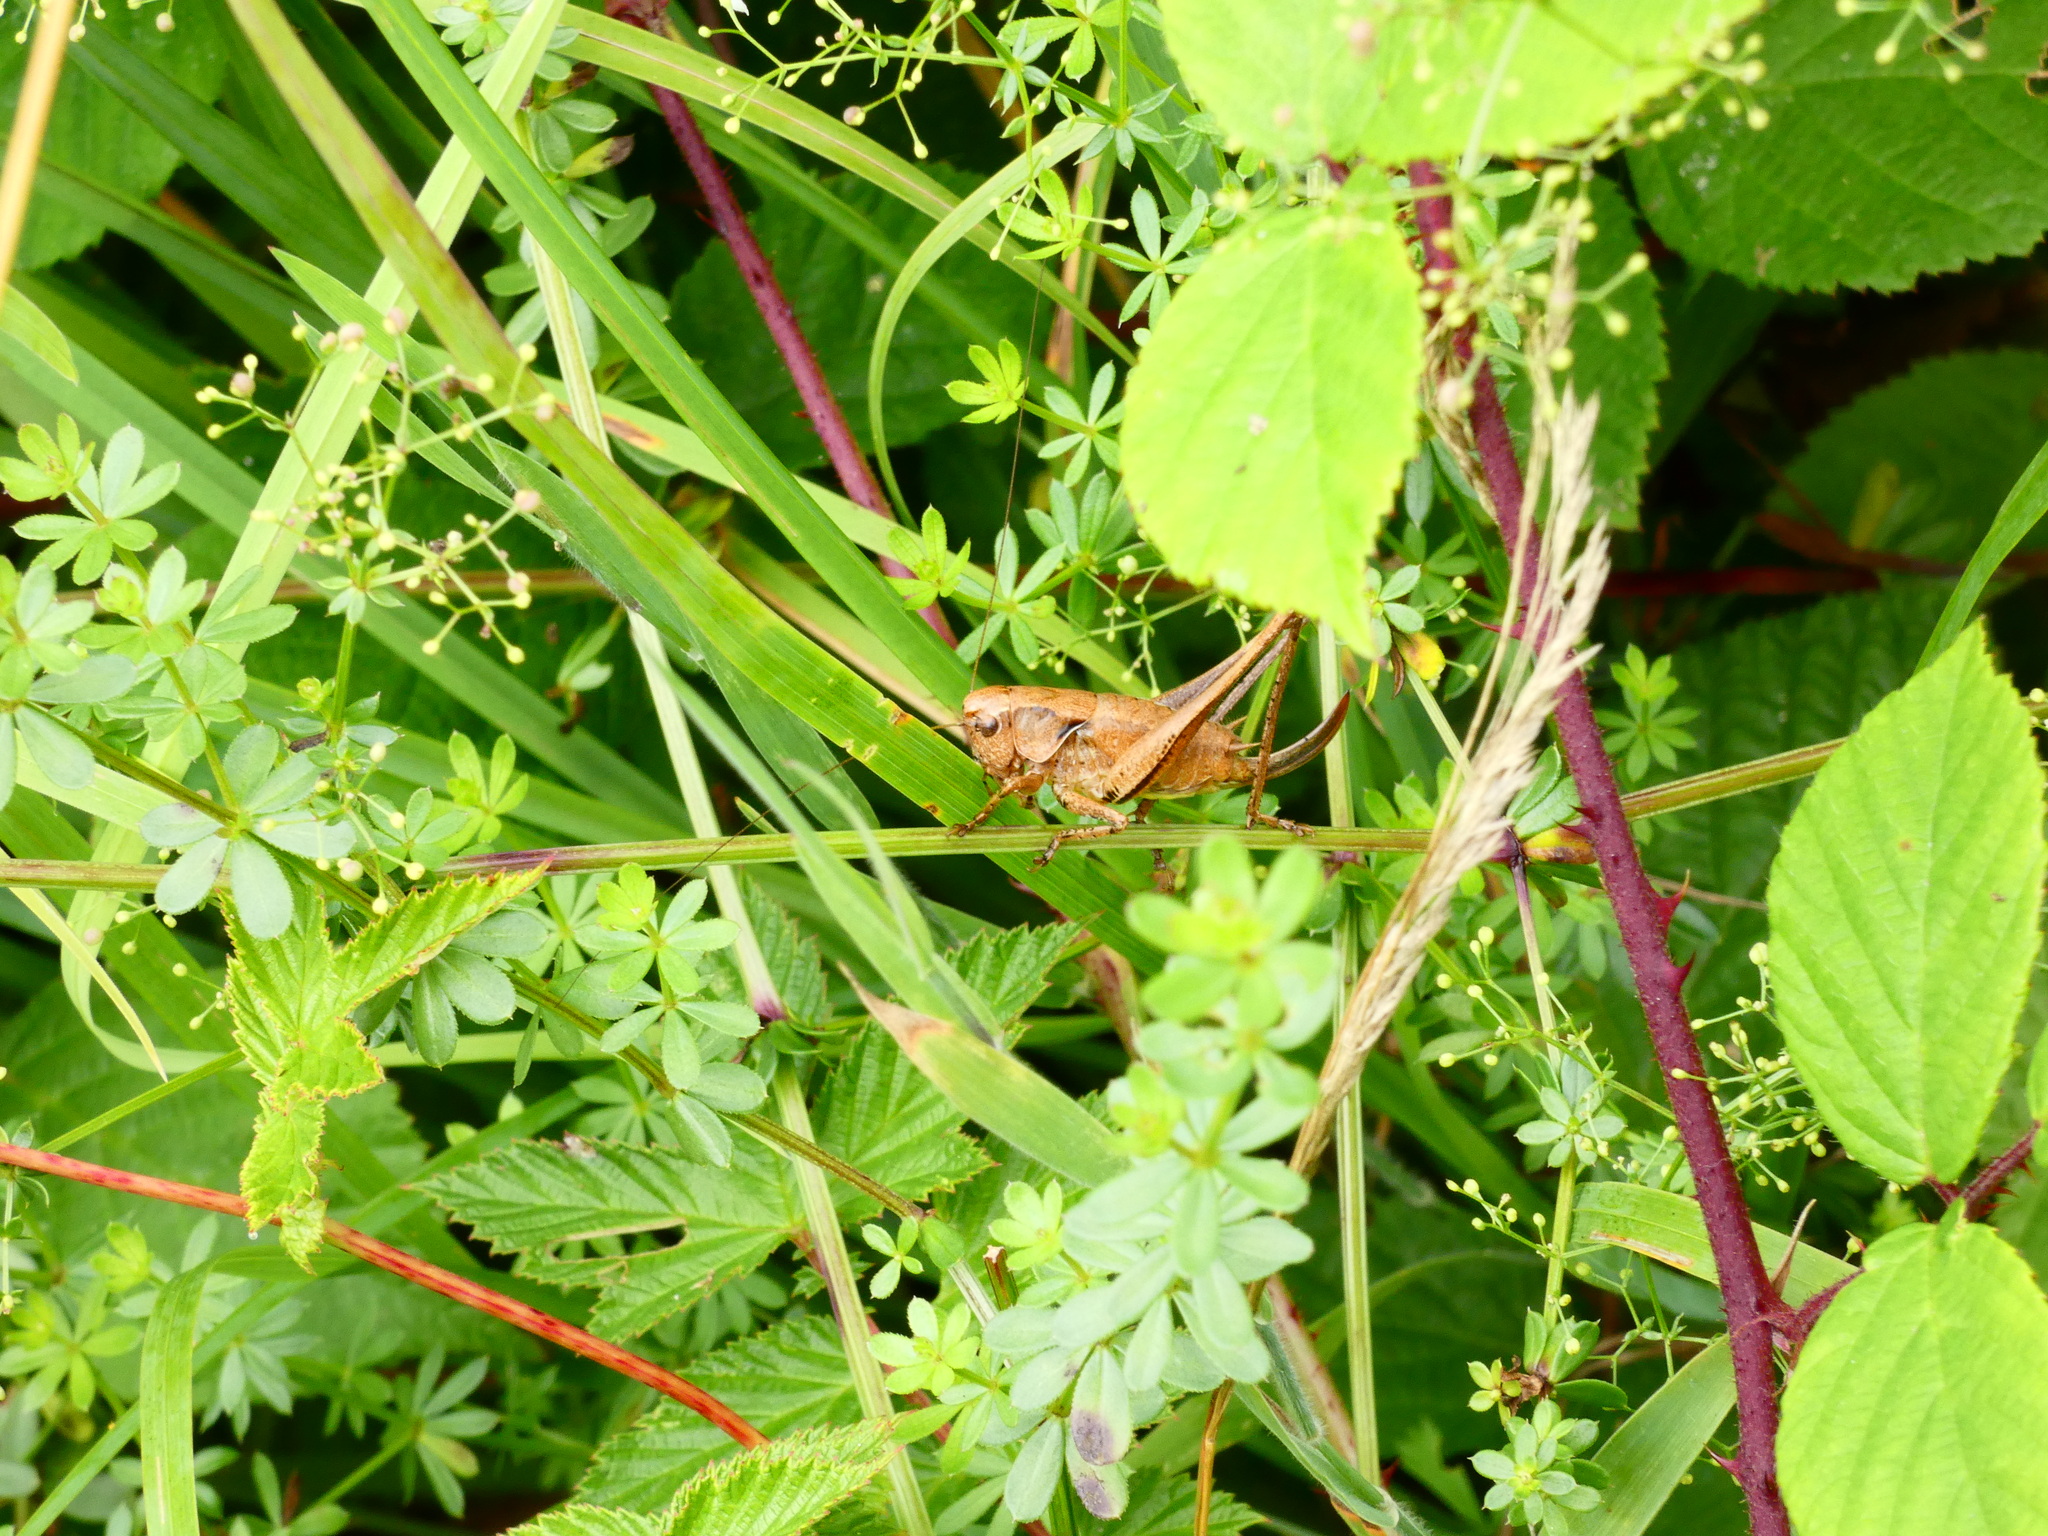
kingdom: Animalia
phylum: Arthropoda
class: Insecta
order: Orthoptera
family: Tettigoniidae
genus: Pholidoptera
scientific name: Pholidoptera griseoaptera
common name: Dark bush-cricket
